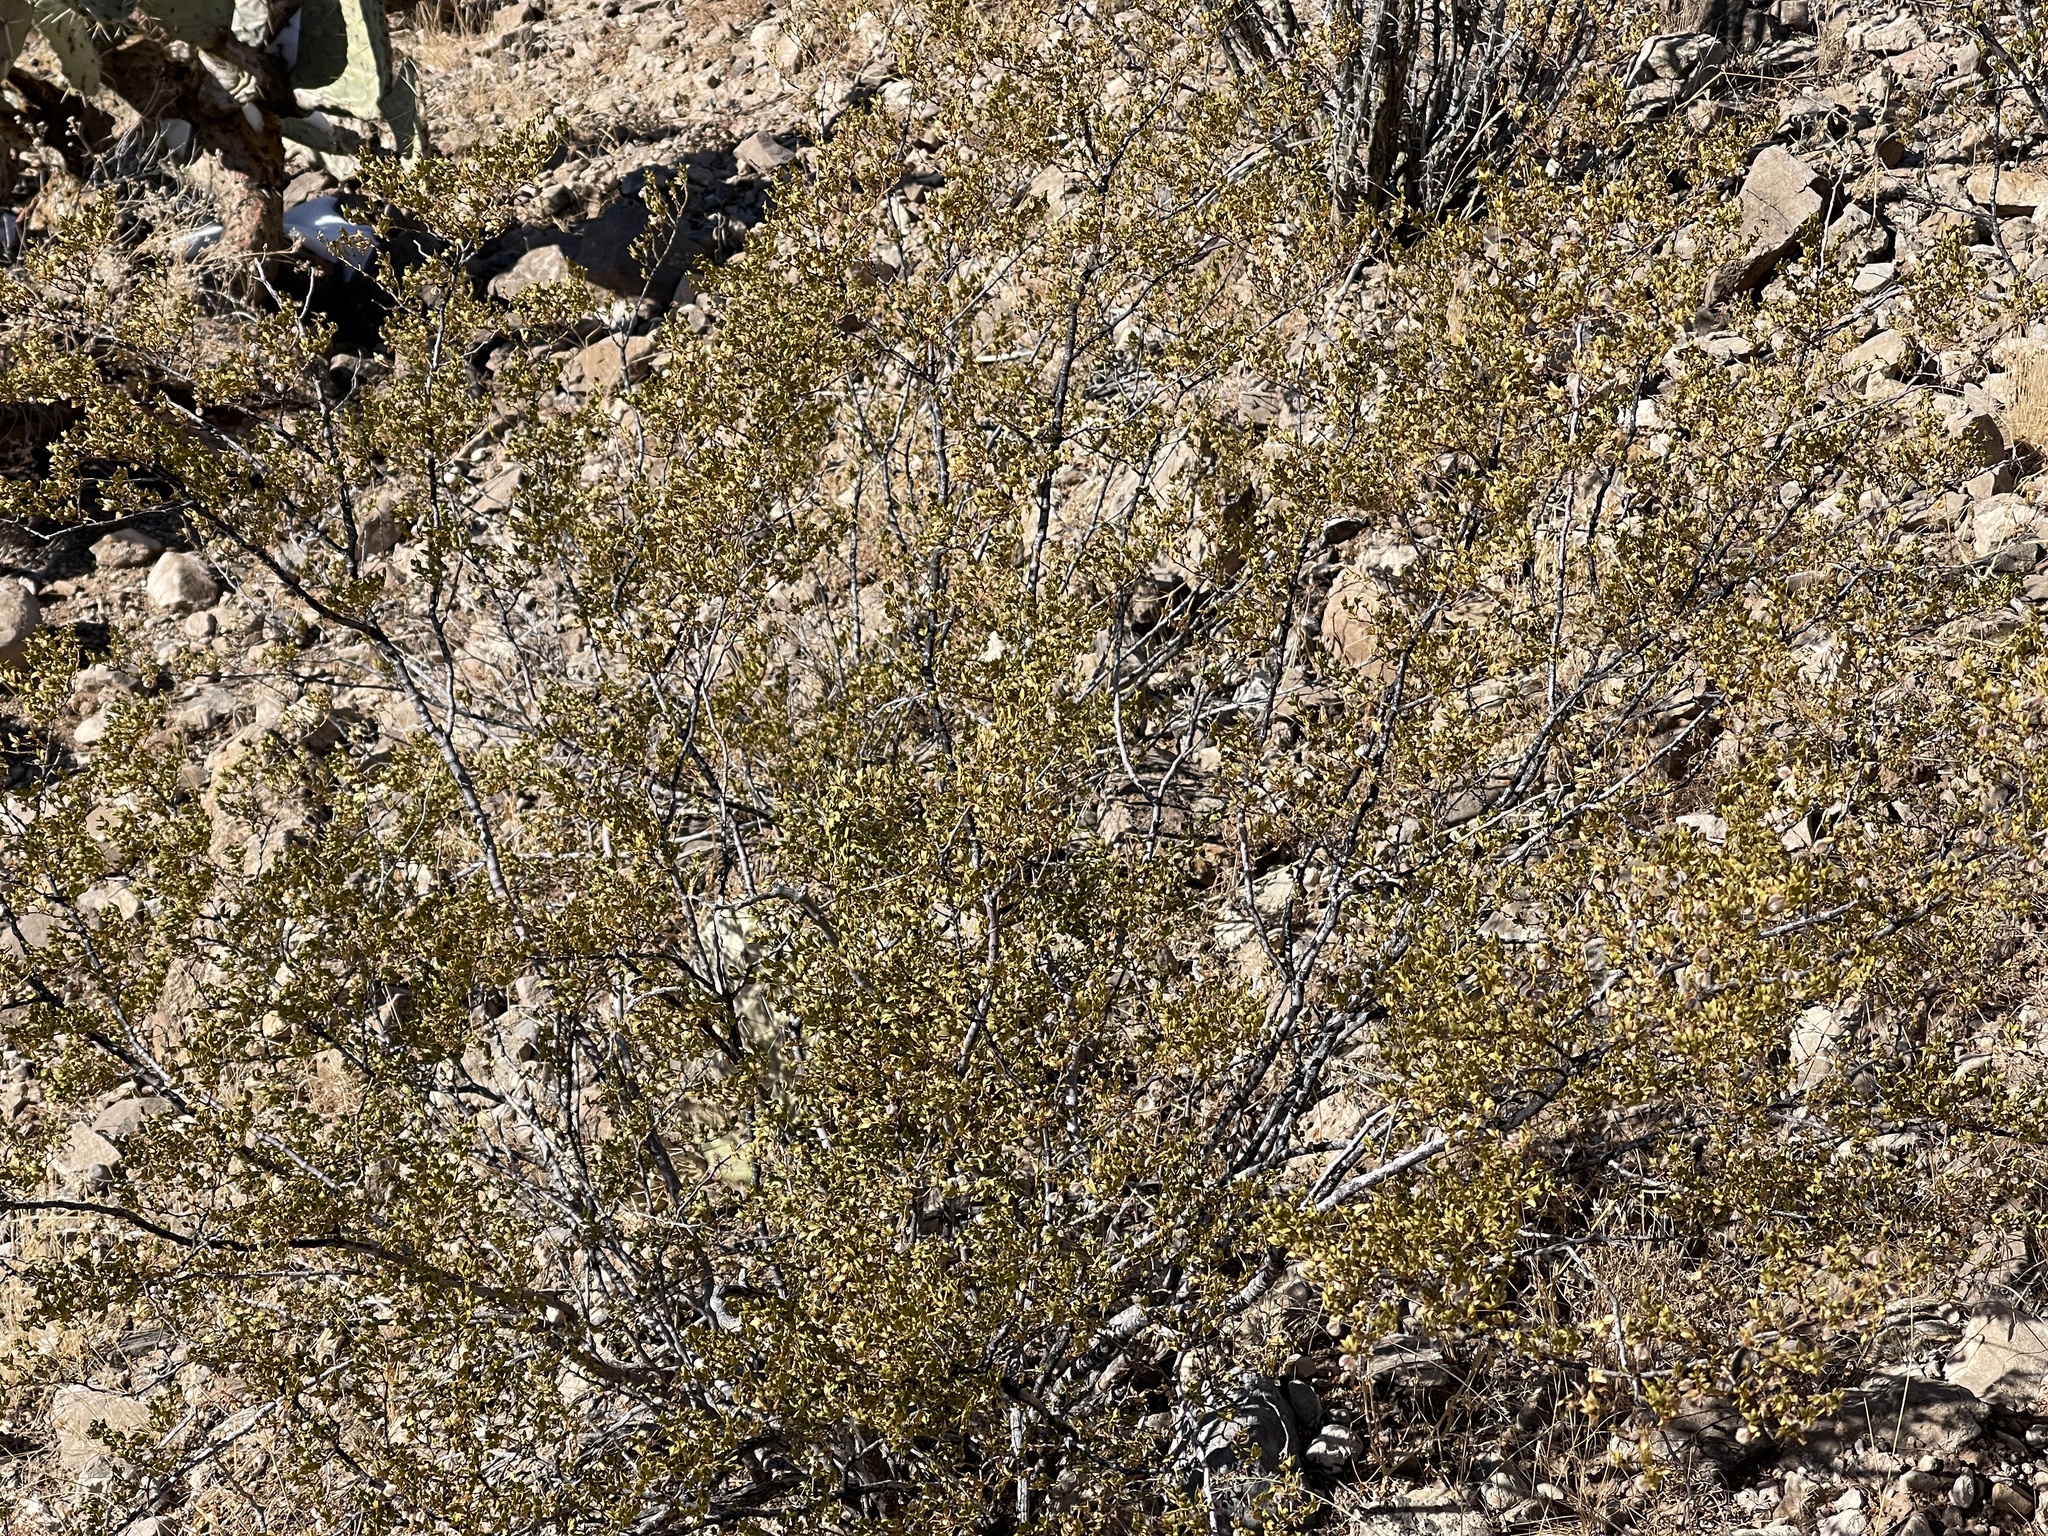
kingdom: Plantae
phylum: Tracheophyta
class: Magnoliopsida
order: Zygophyllales
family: Zygophyllaceae
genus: Larrea
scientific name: Larrea tridentata
